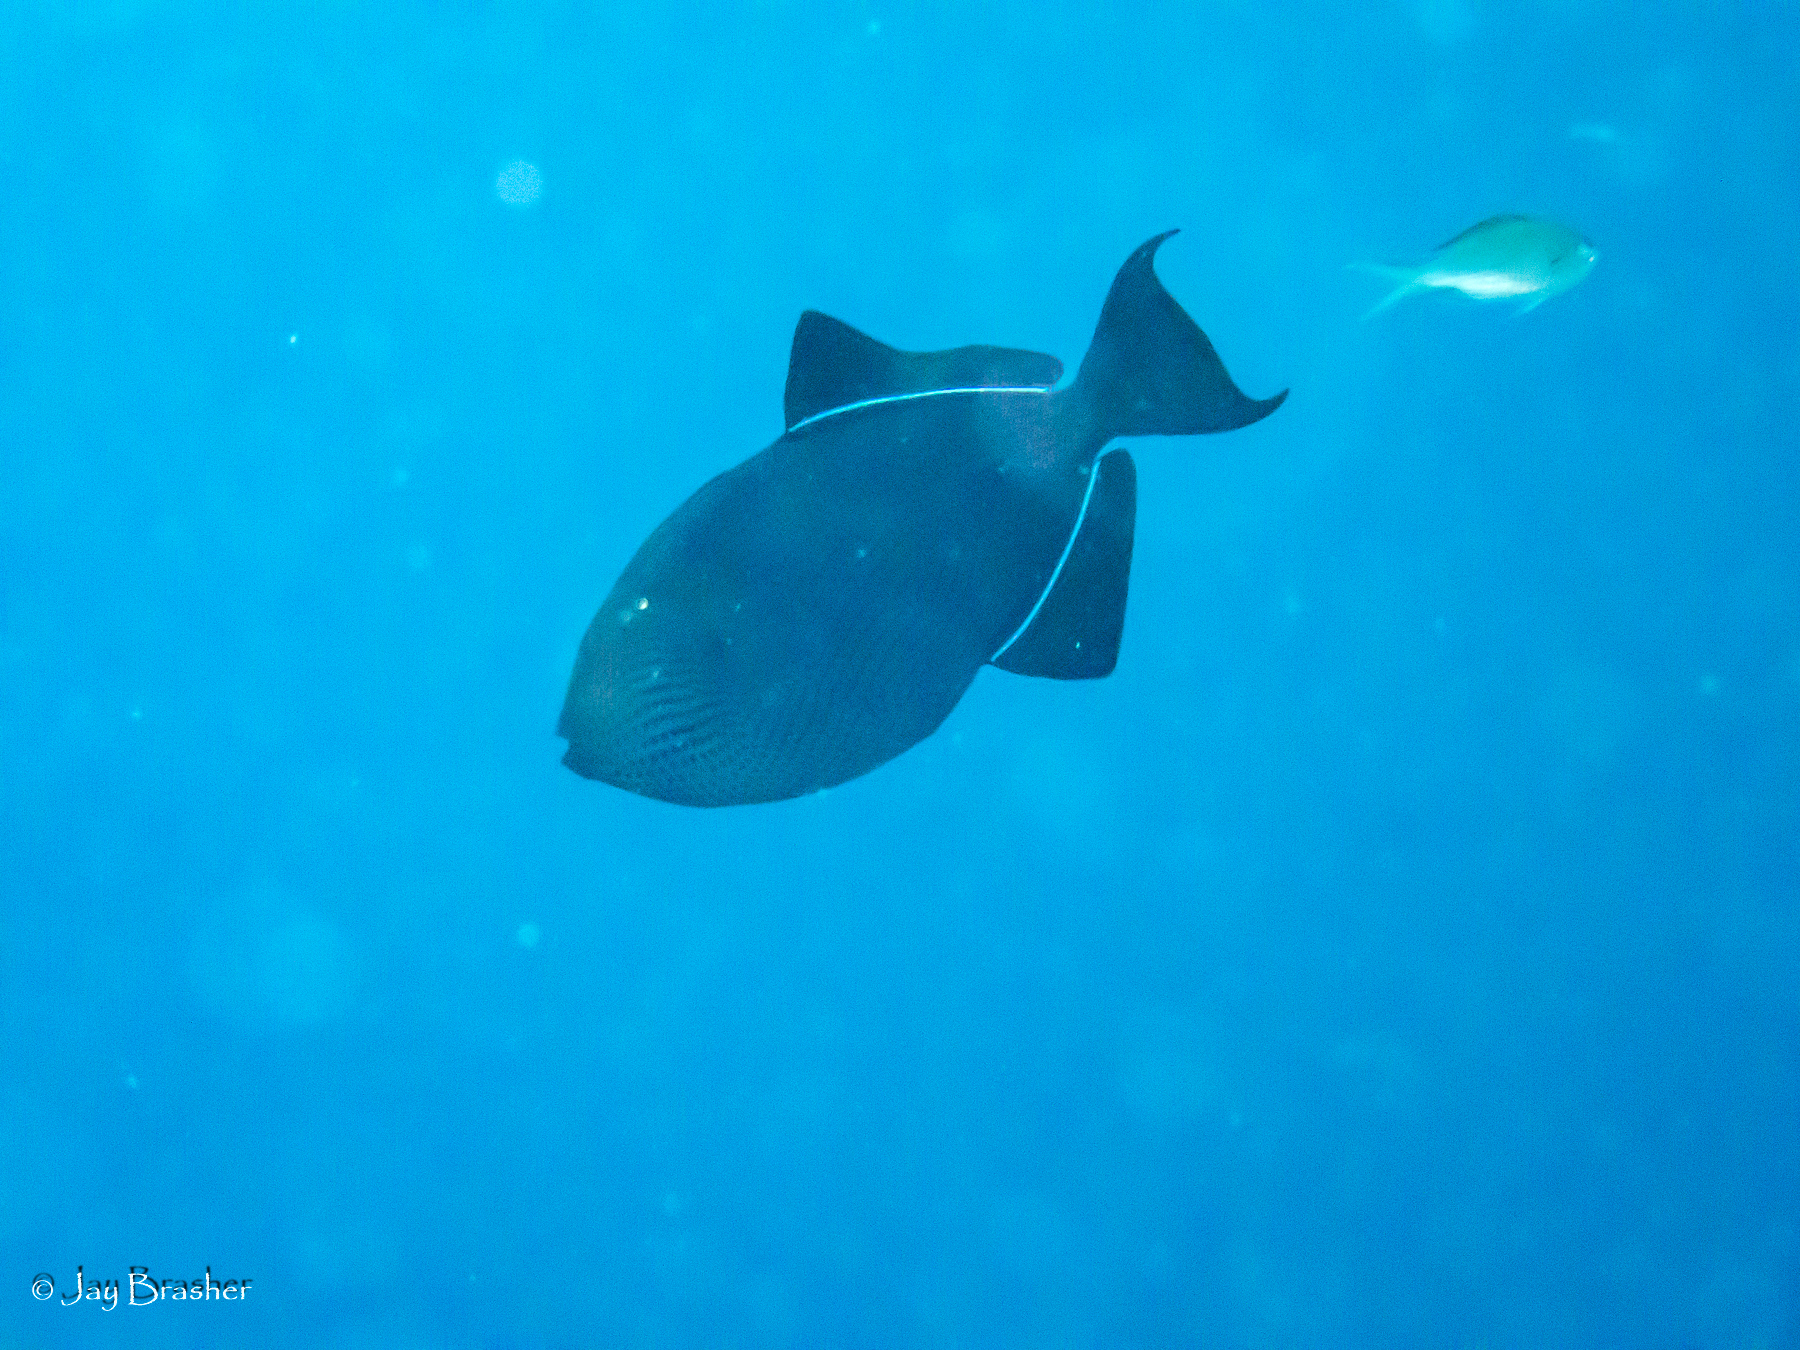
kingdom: Animalia
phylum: Chordata
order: Tetraodontiformes
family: Balistidae
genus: Melichthys
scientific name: Melichthys niger
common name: Black durgon
